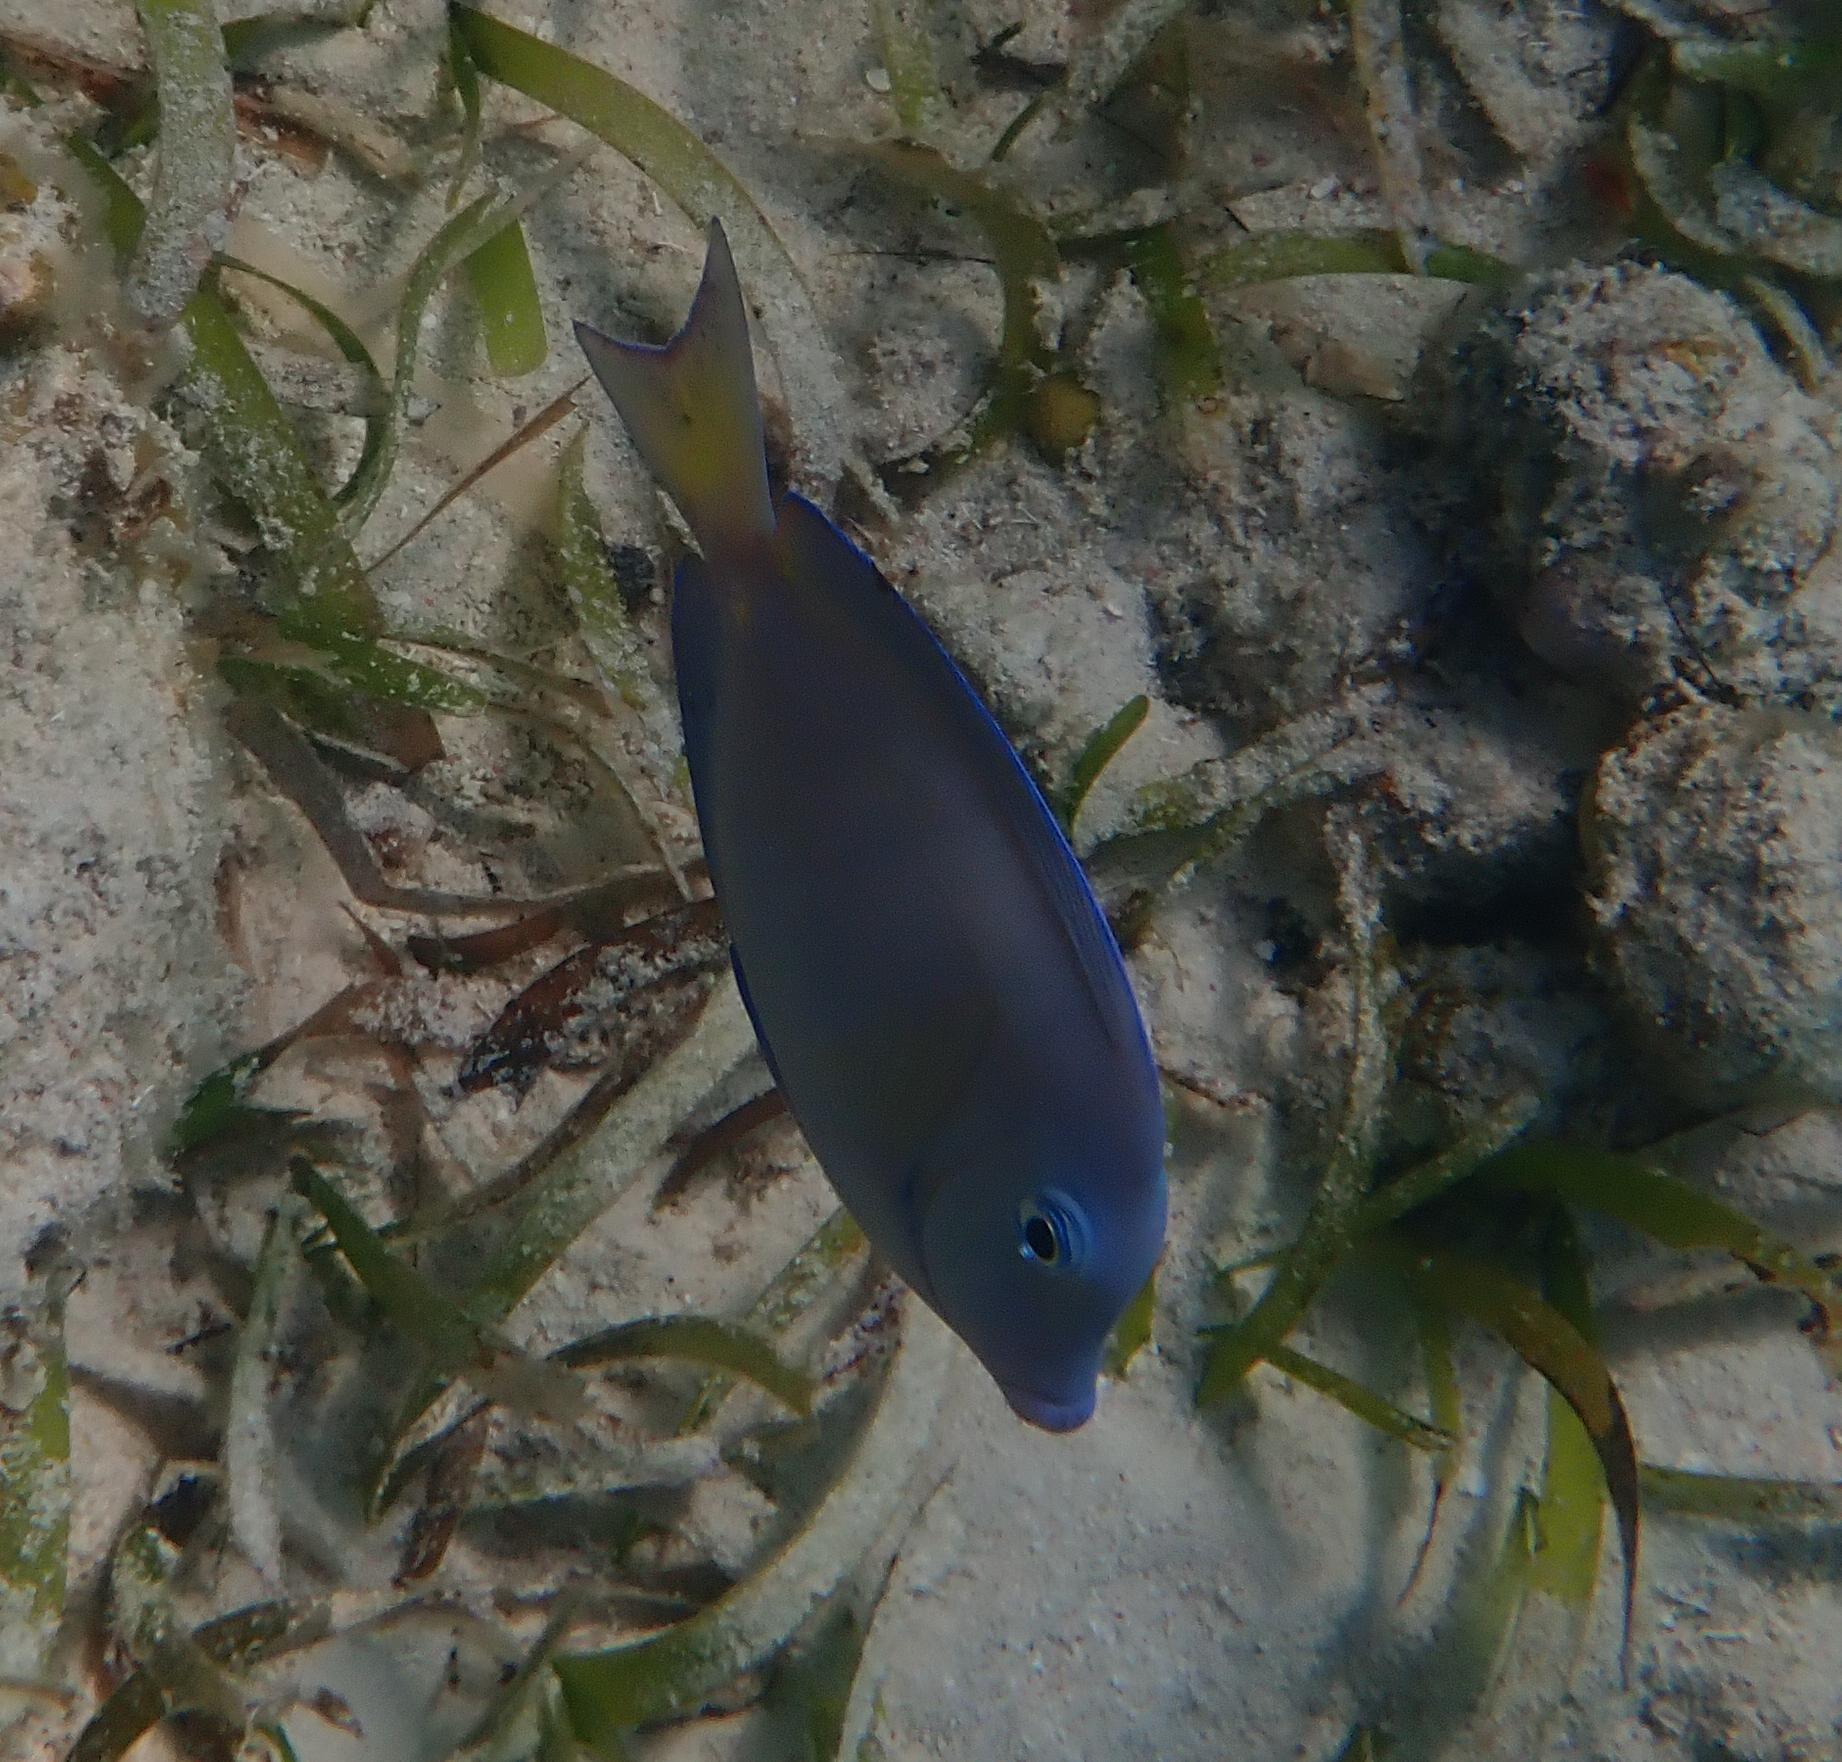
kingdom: Animalia
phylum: Chordata
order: Perciformes
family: Acanthuridae
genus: Acanthurus
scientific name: Acanthurus coeruleus
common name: Blue tang
